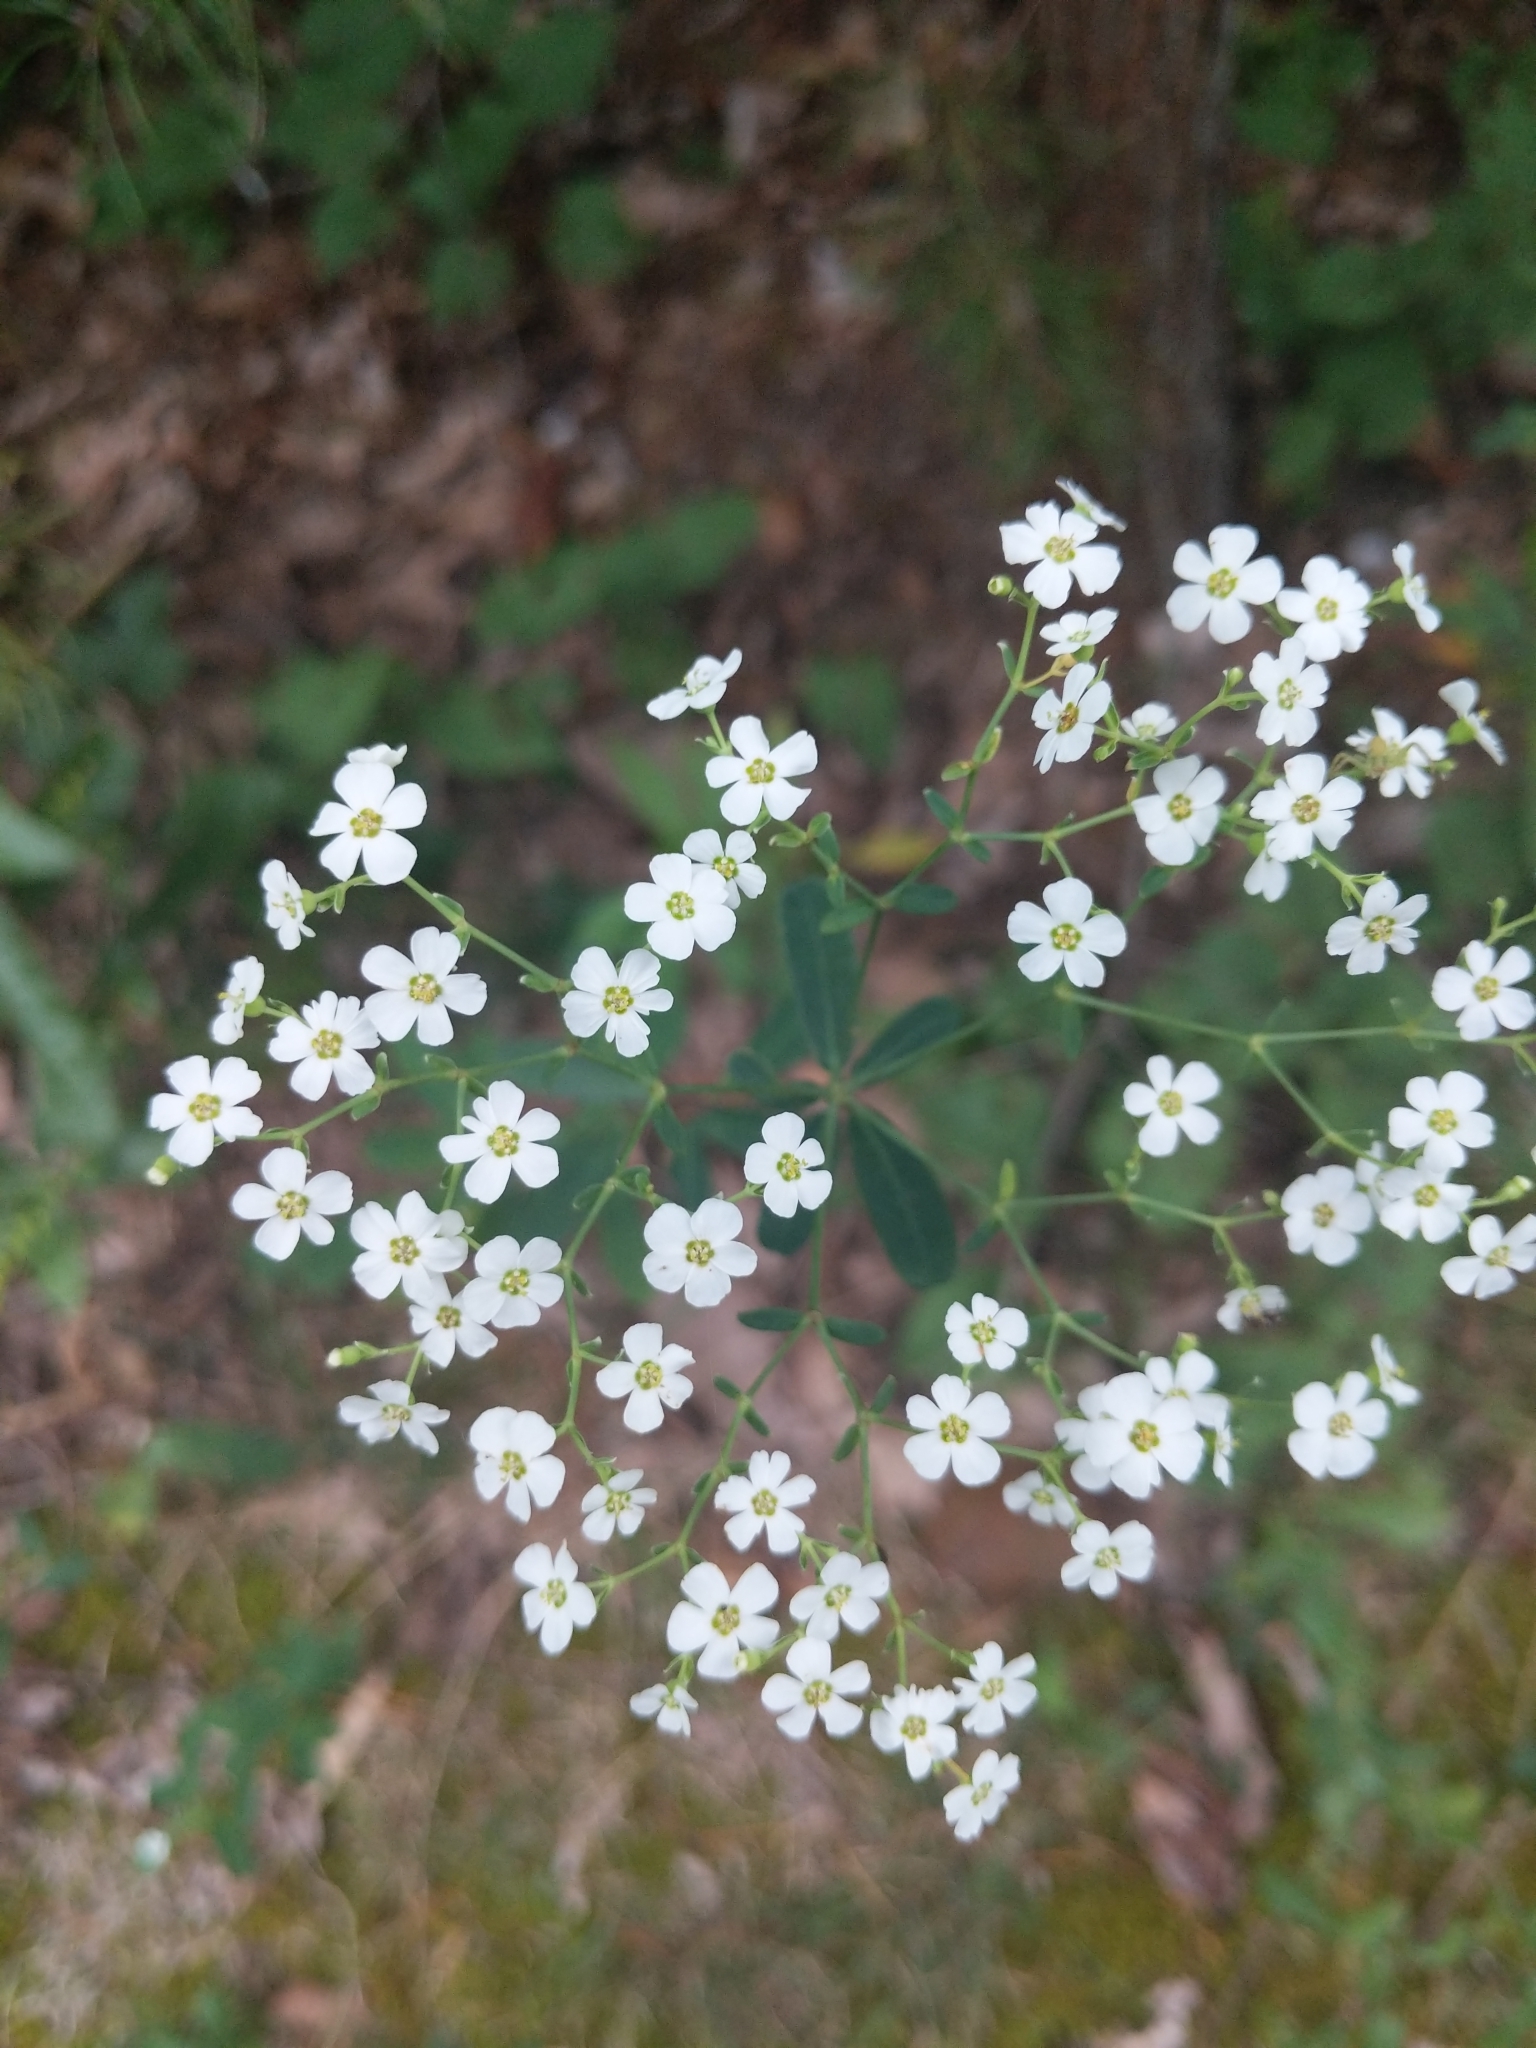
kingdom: Plantae
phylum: Tracheophyta
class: Magnoliopsida
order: Malpighiales
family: Euphorbiaceae
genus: Euphorbia
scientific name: Euphorbia corollata
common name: Flowering spurge
